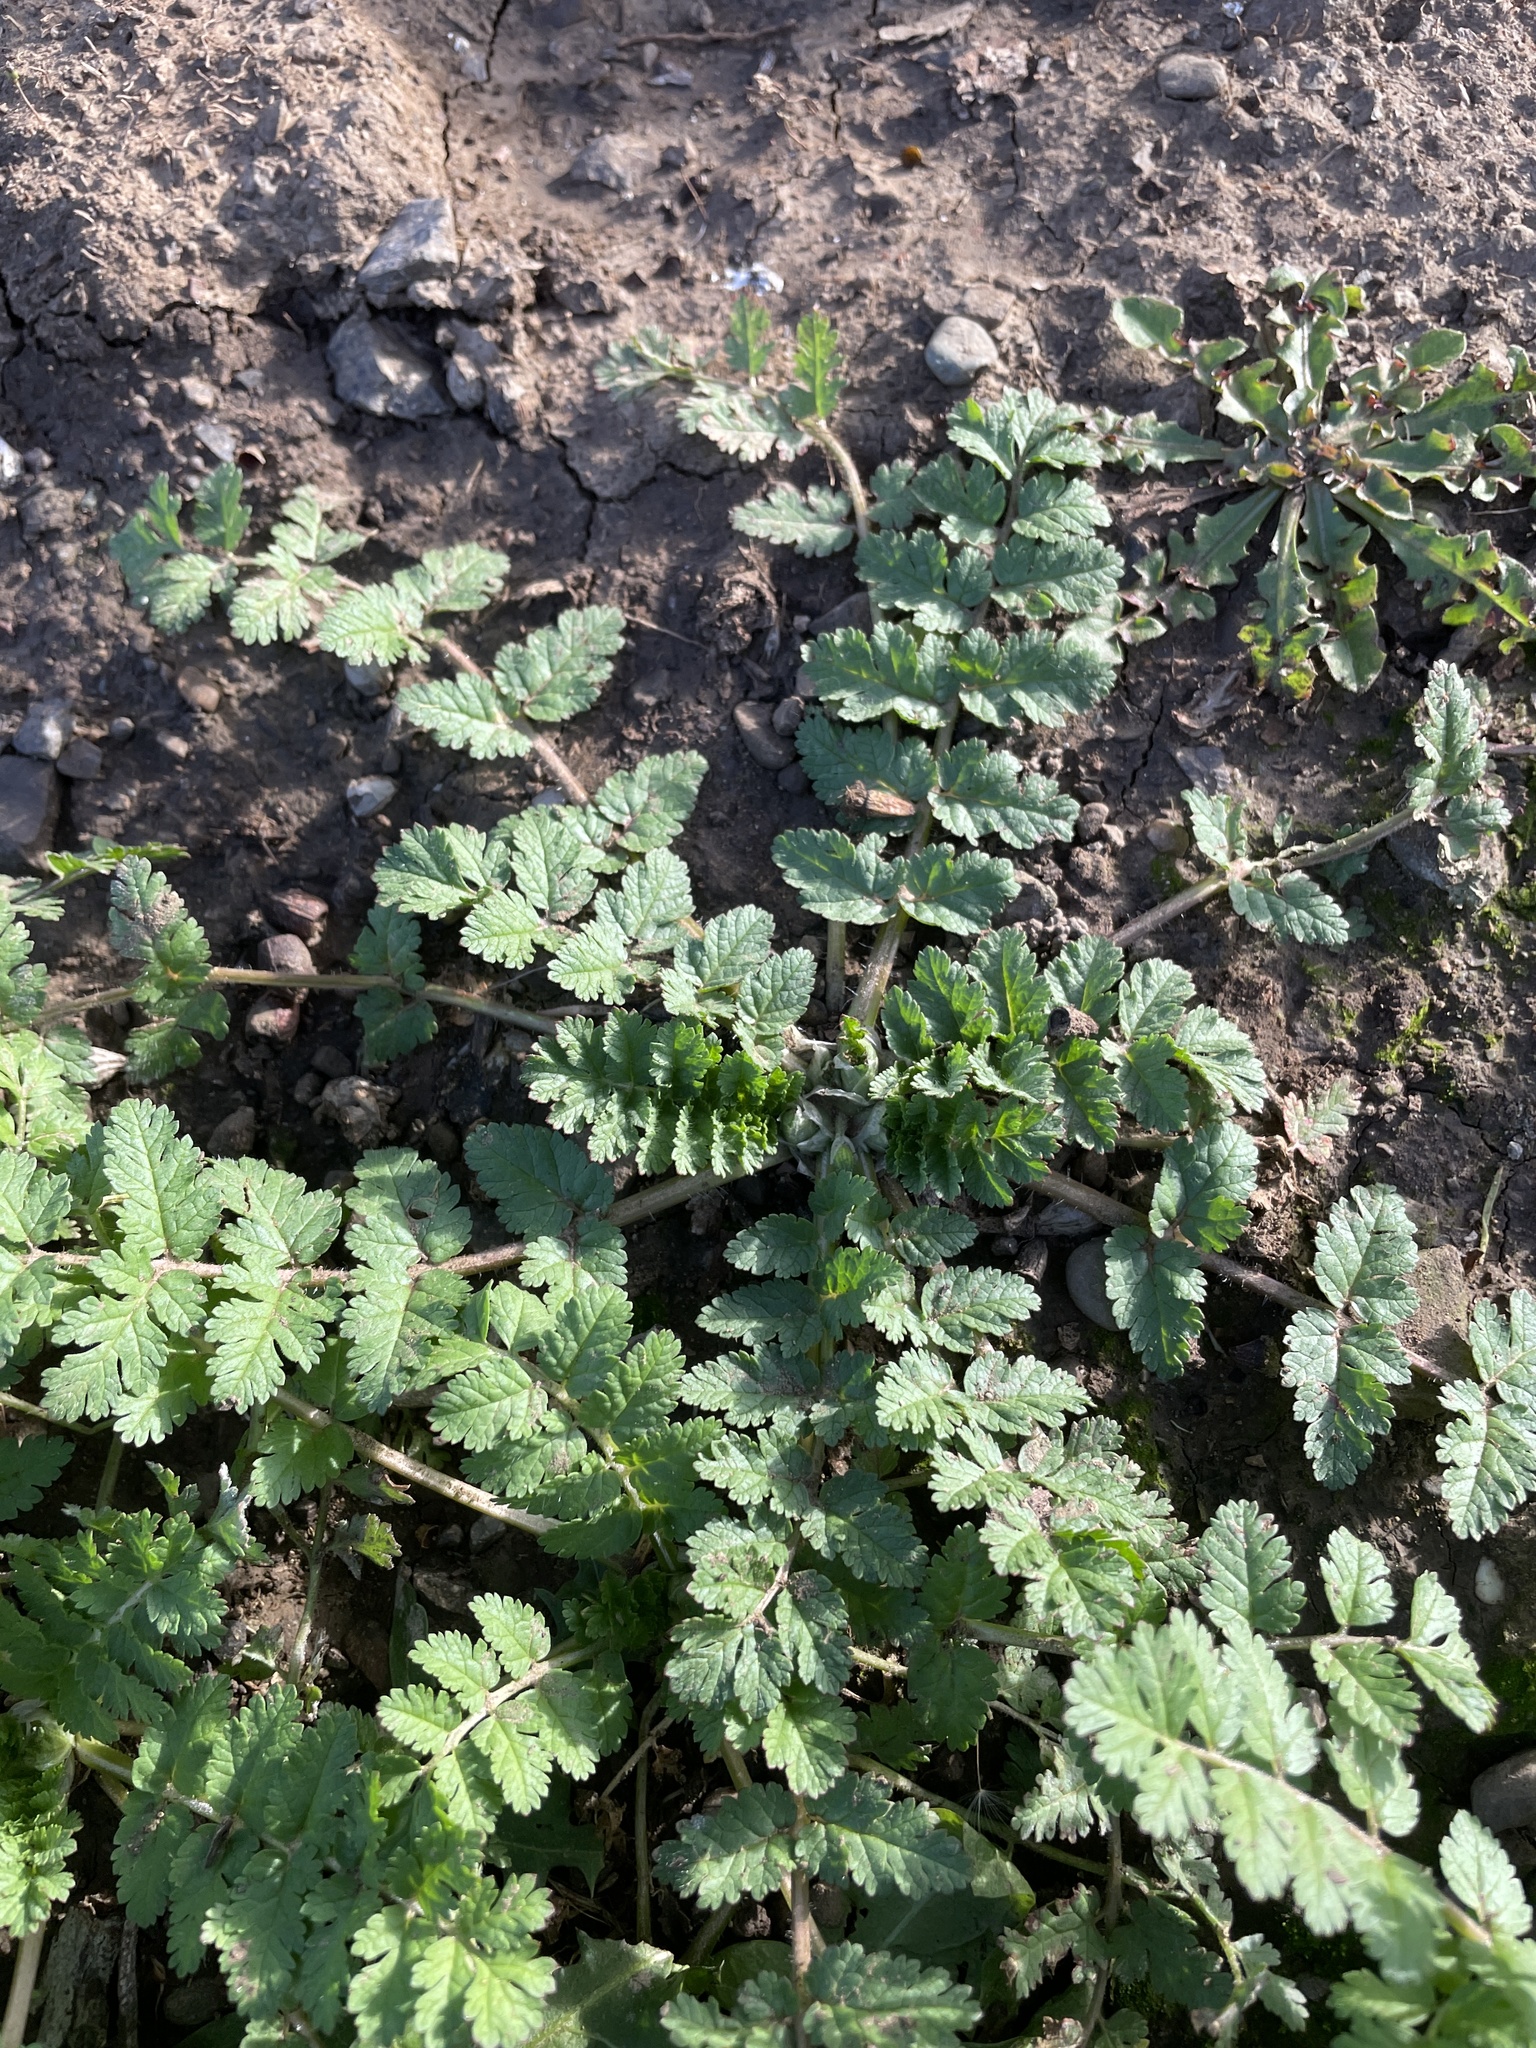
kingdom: Plantae
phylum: Tracheophyta
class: Magnoliopsida
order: Geraniales
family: Geraniaceae
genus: Erodium
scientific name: Erodium moschatum
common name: Musk stork's-bill
